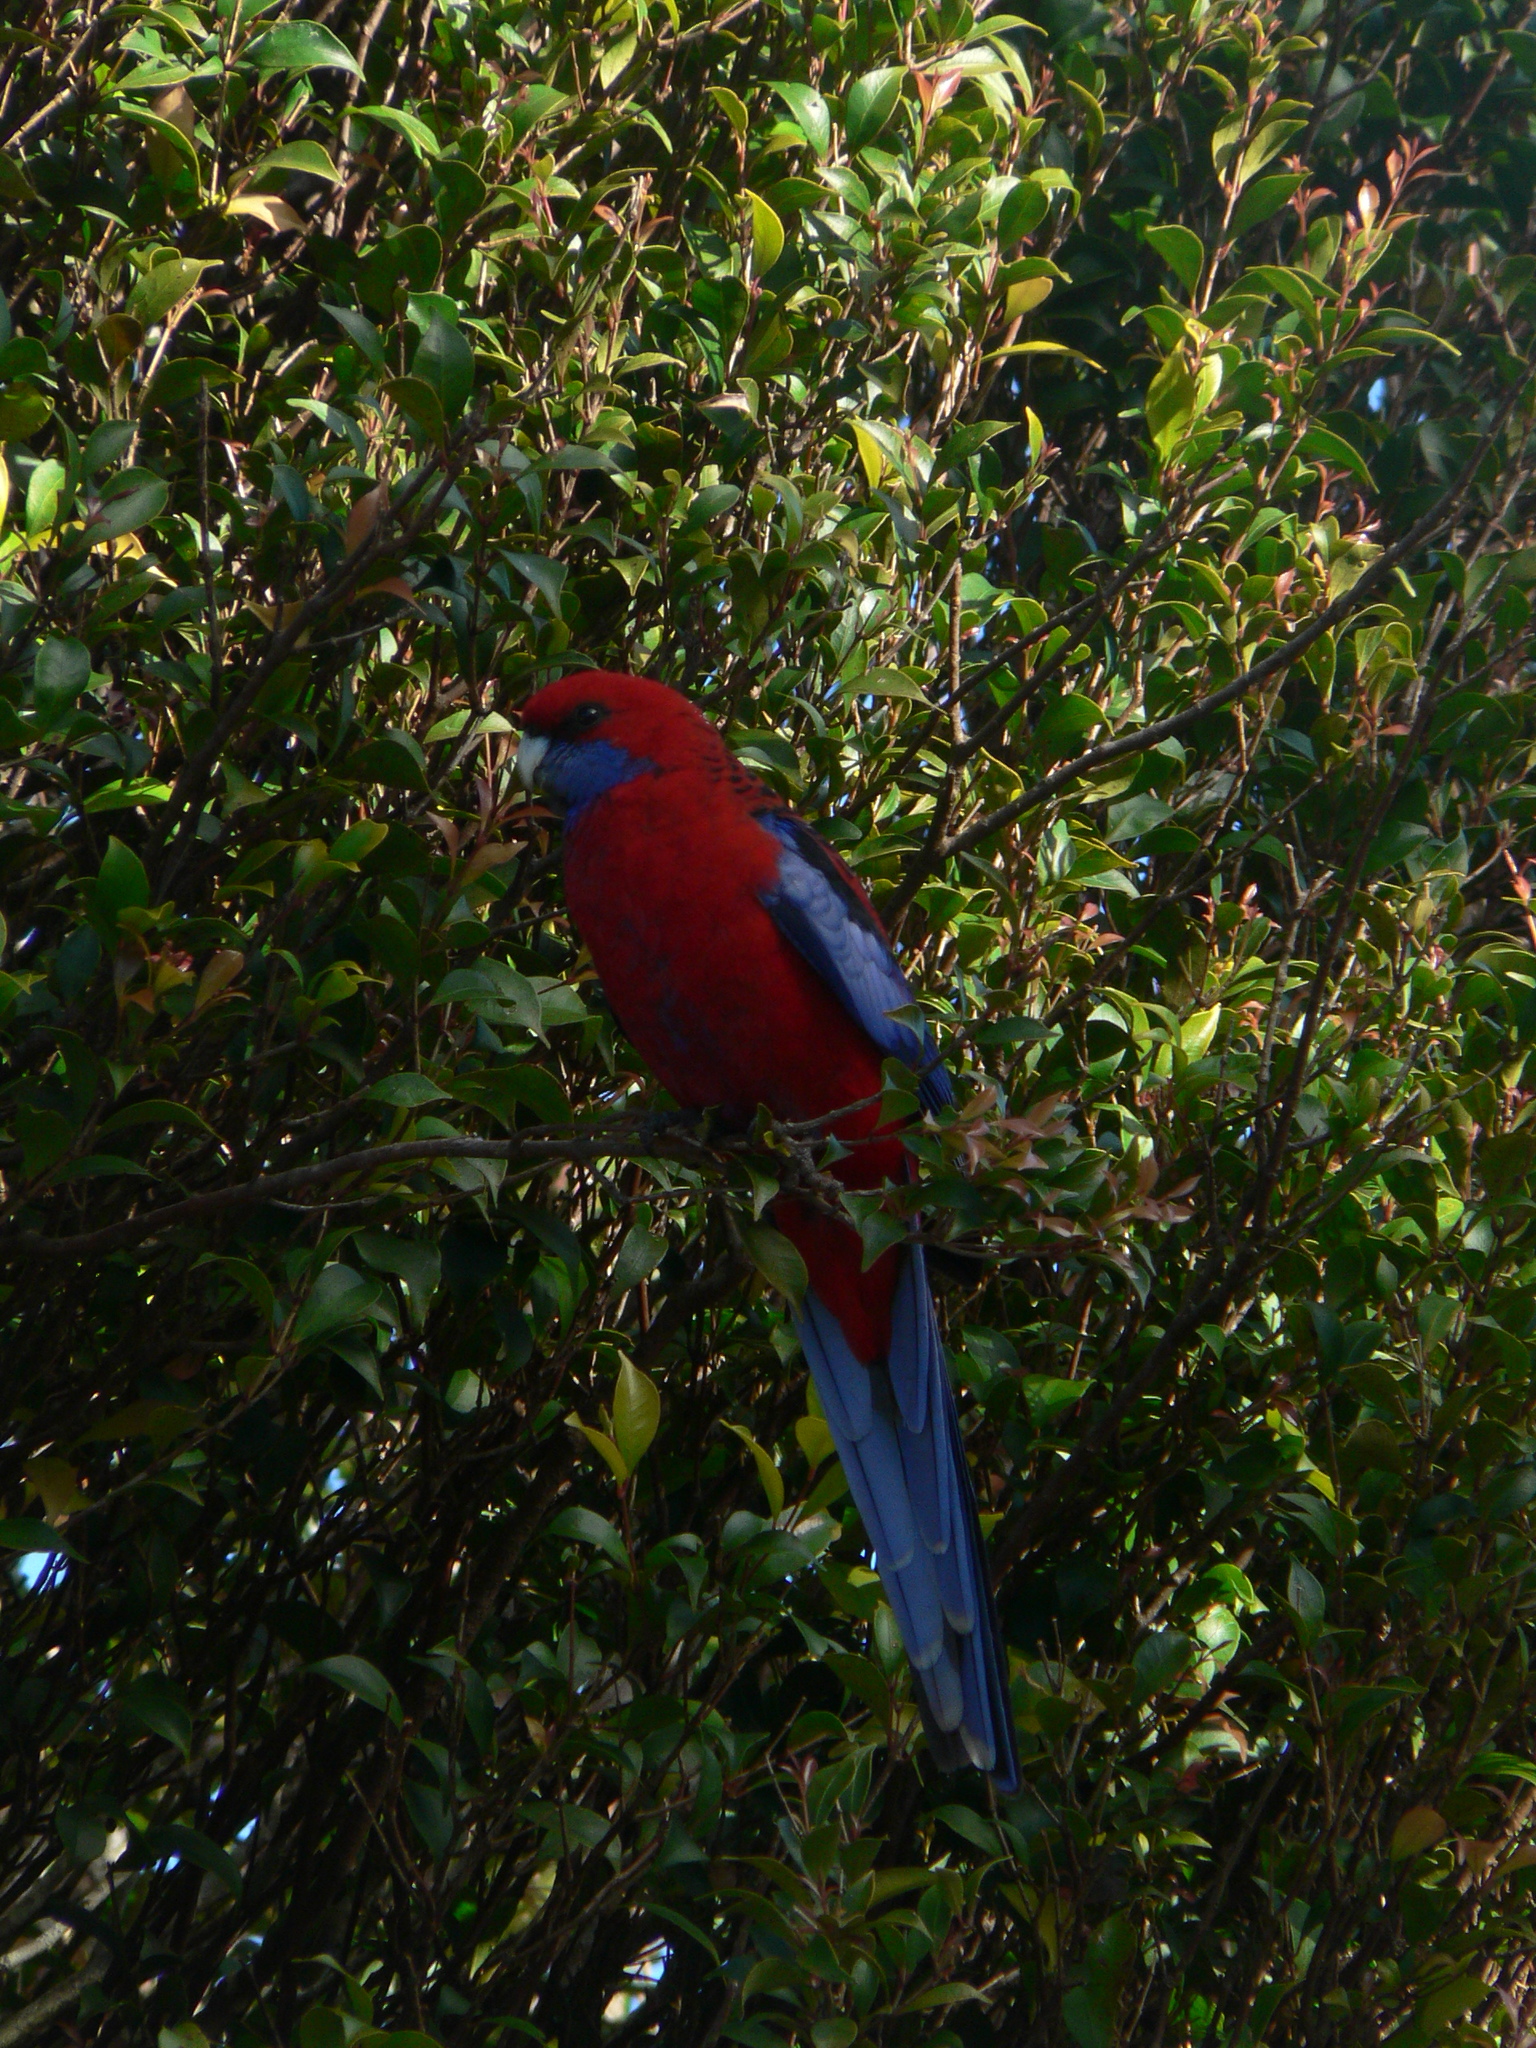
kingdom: Animalia
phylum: Chordata
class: Aves
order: Psittaciformes
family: Psittacidae
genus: Platycercus
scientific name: Platycercus elegans
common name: Crimson rosella
